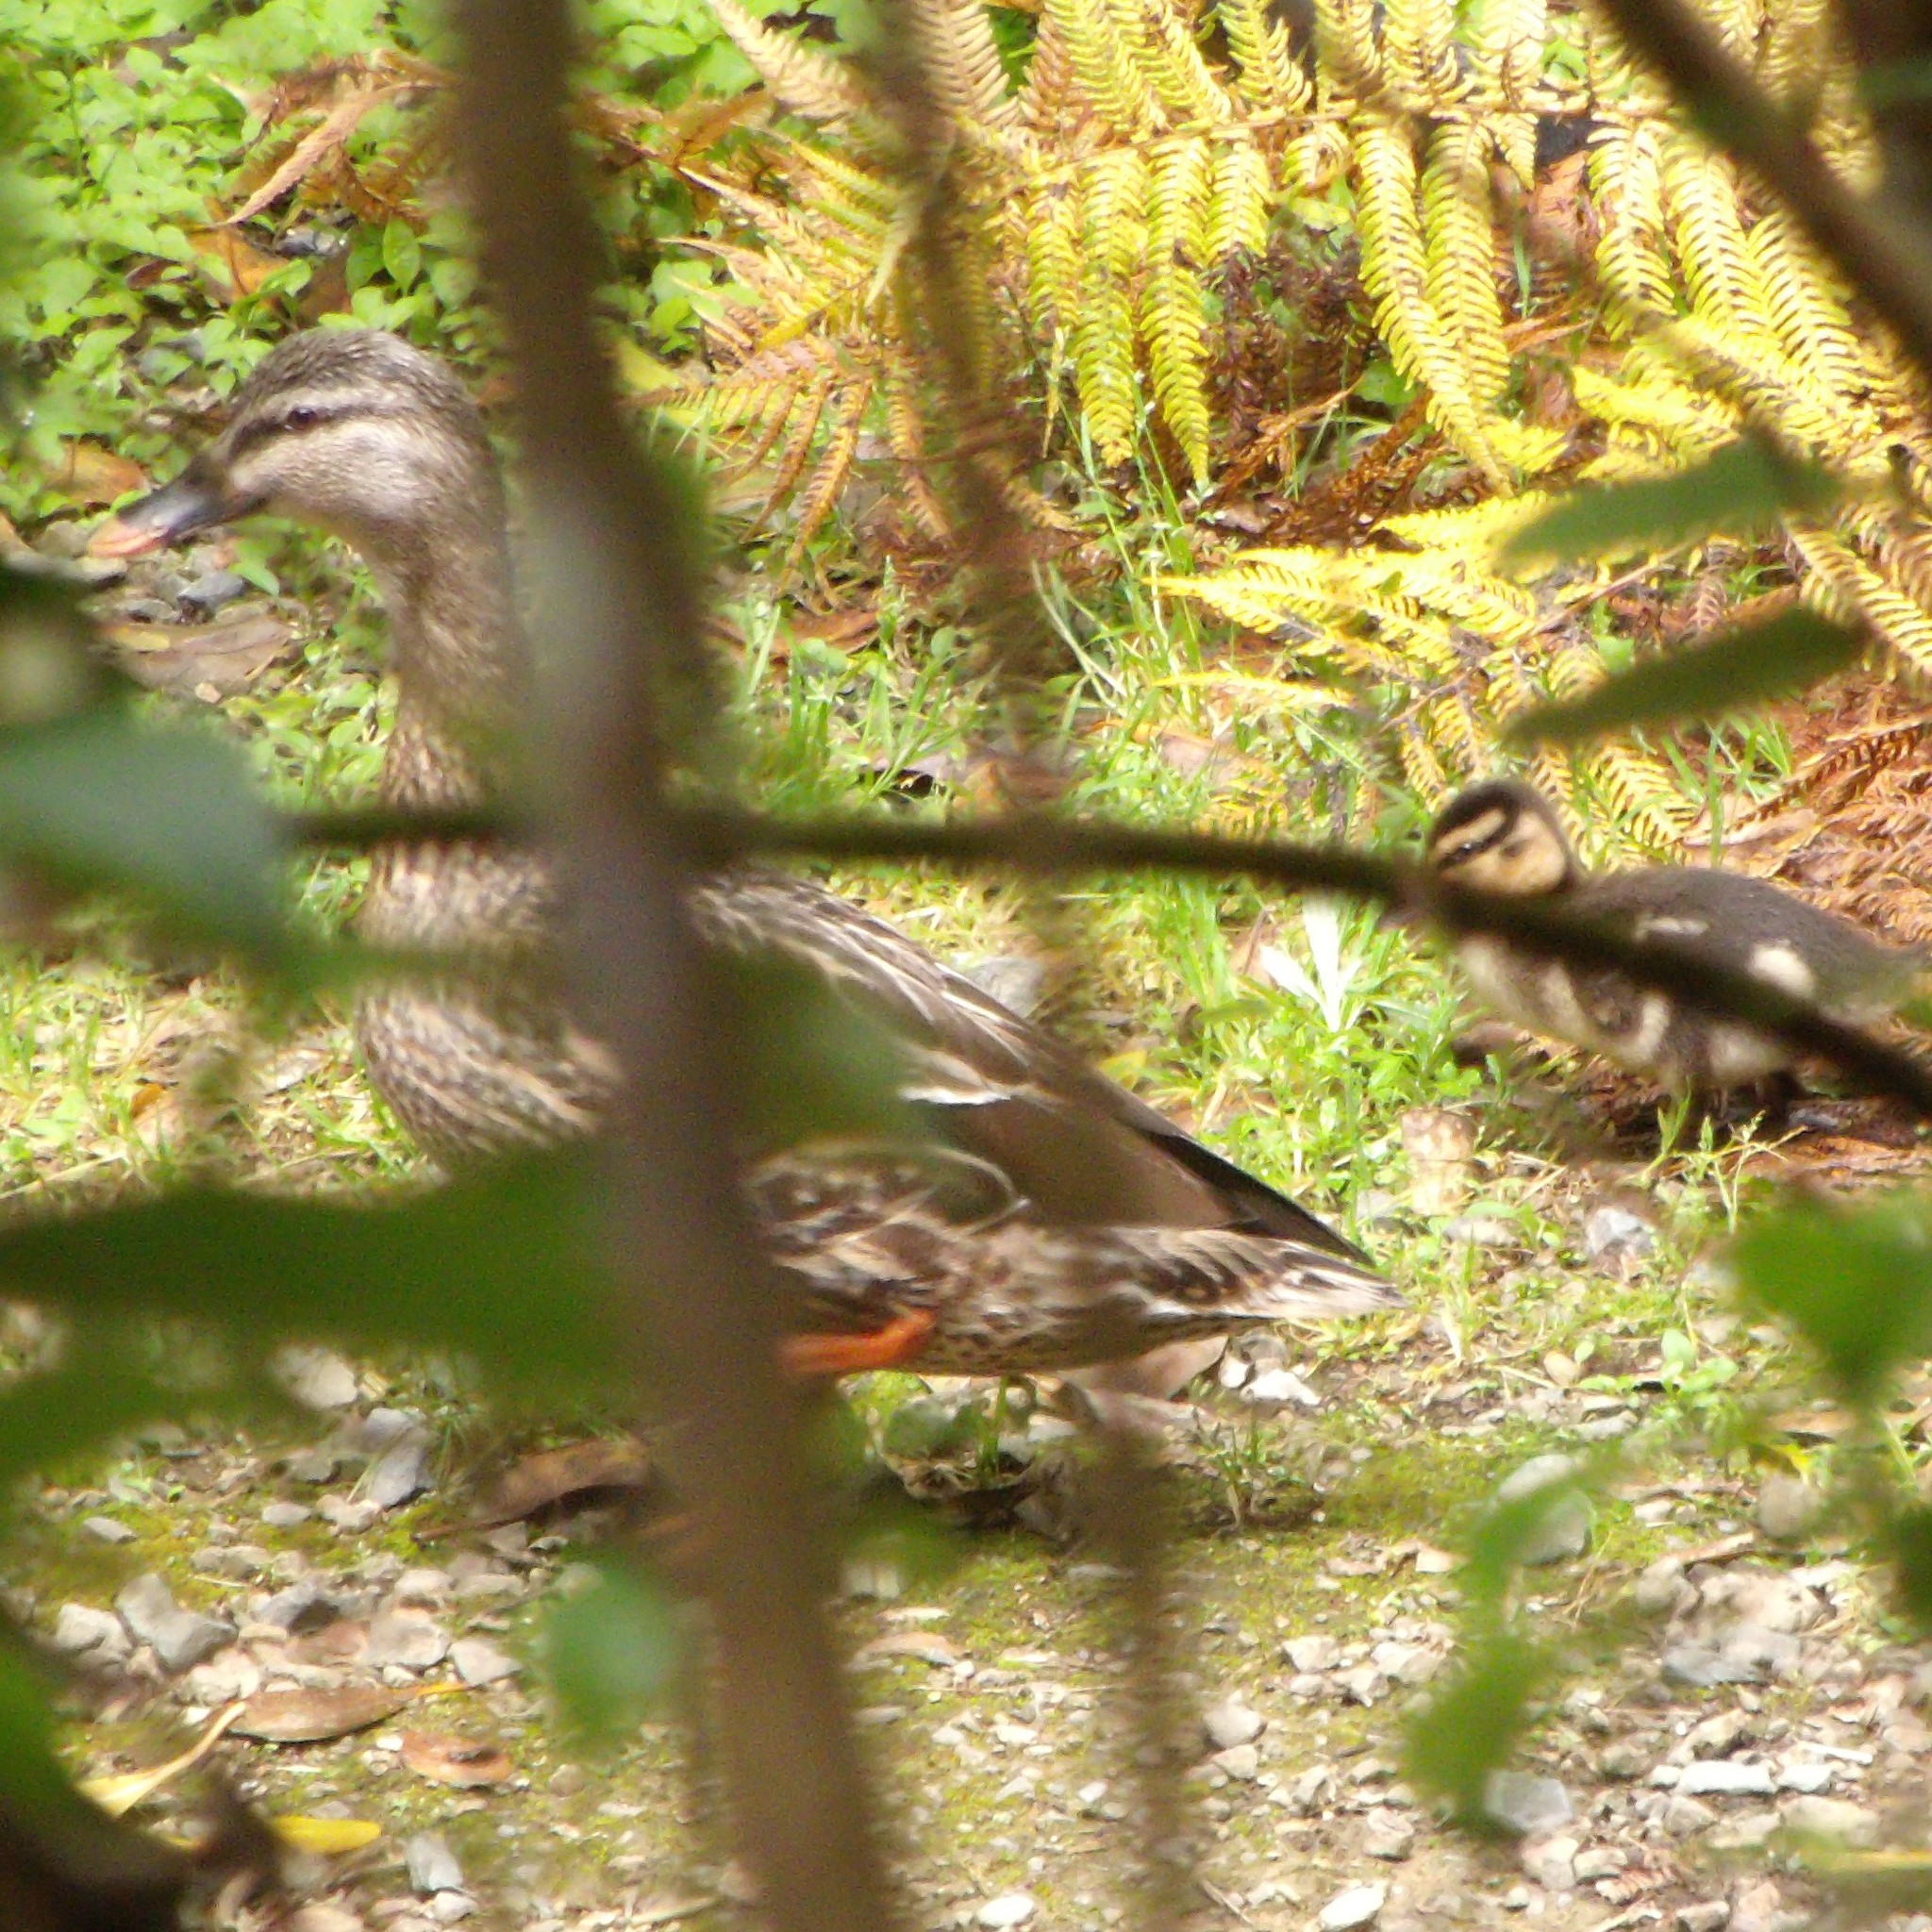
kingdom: Animalia
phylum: Chordata
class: Aves
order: Anseriformes
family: Anatidae
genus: Anas
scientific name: Anas
